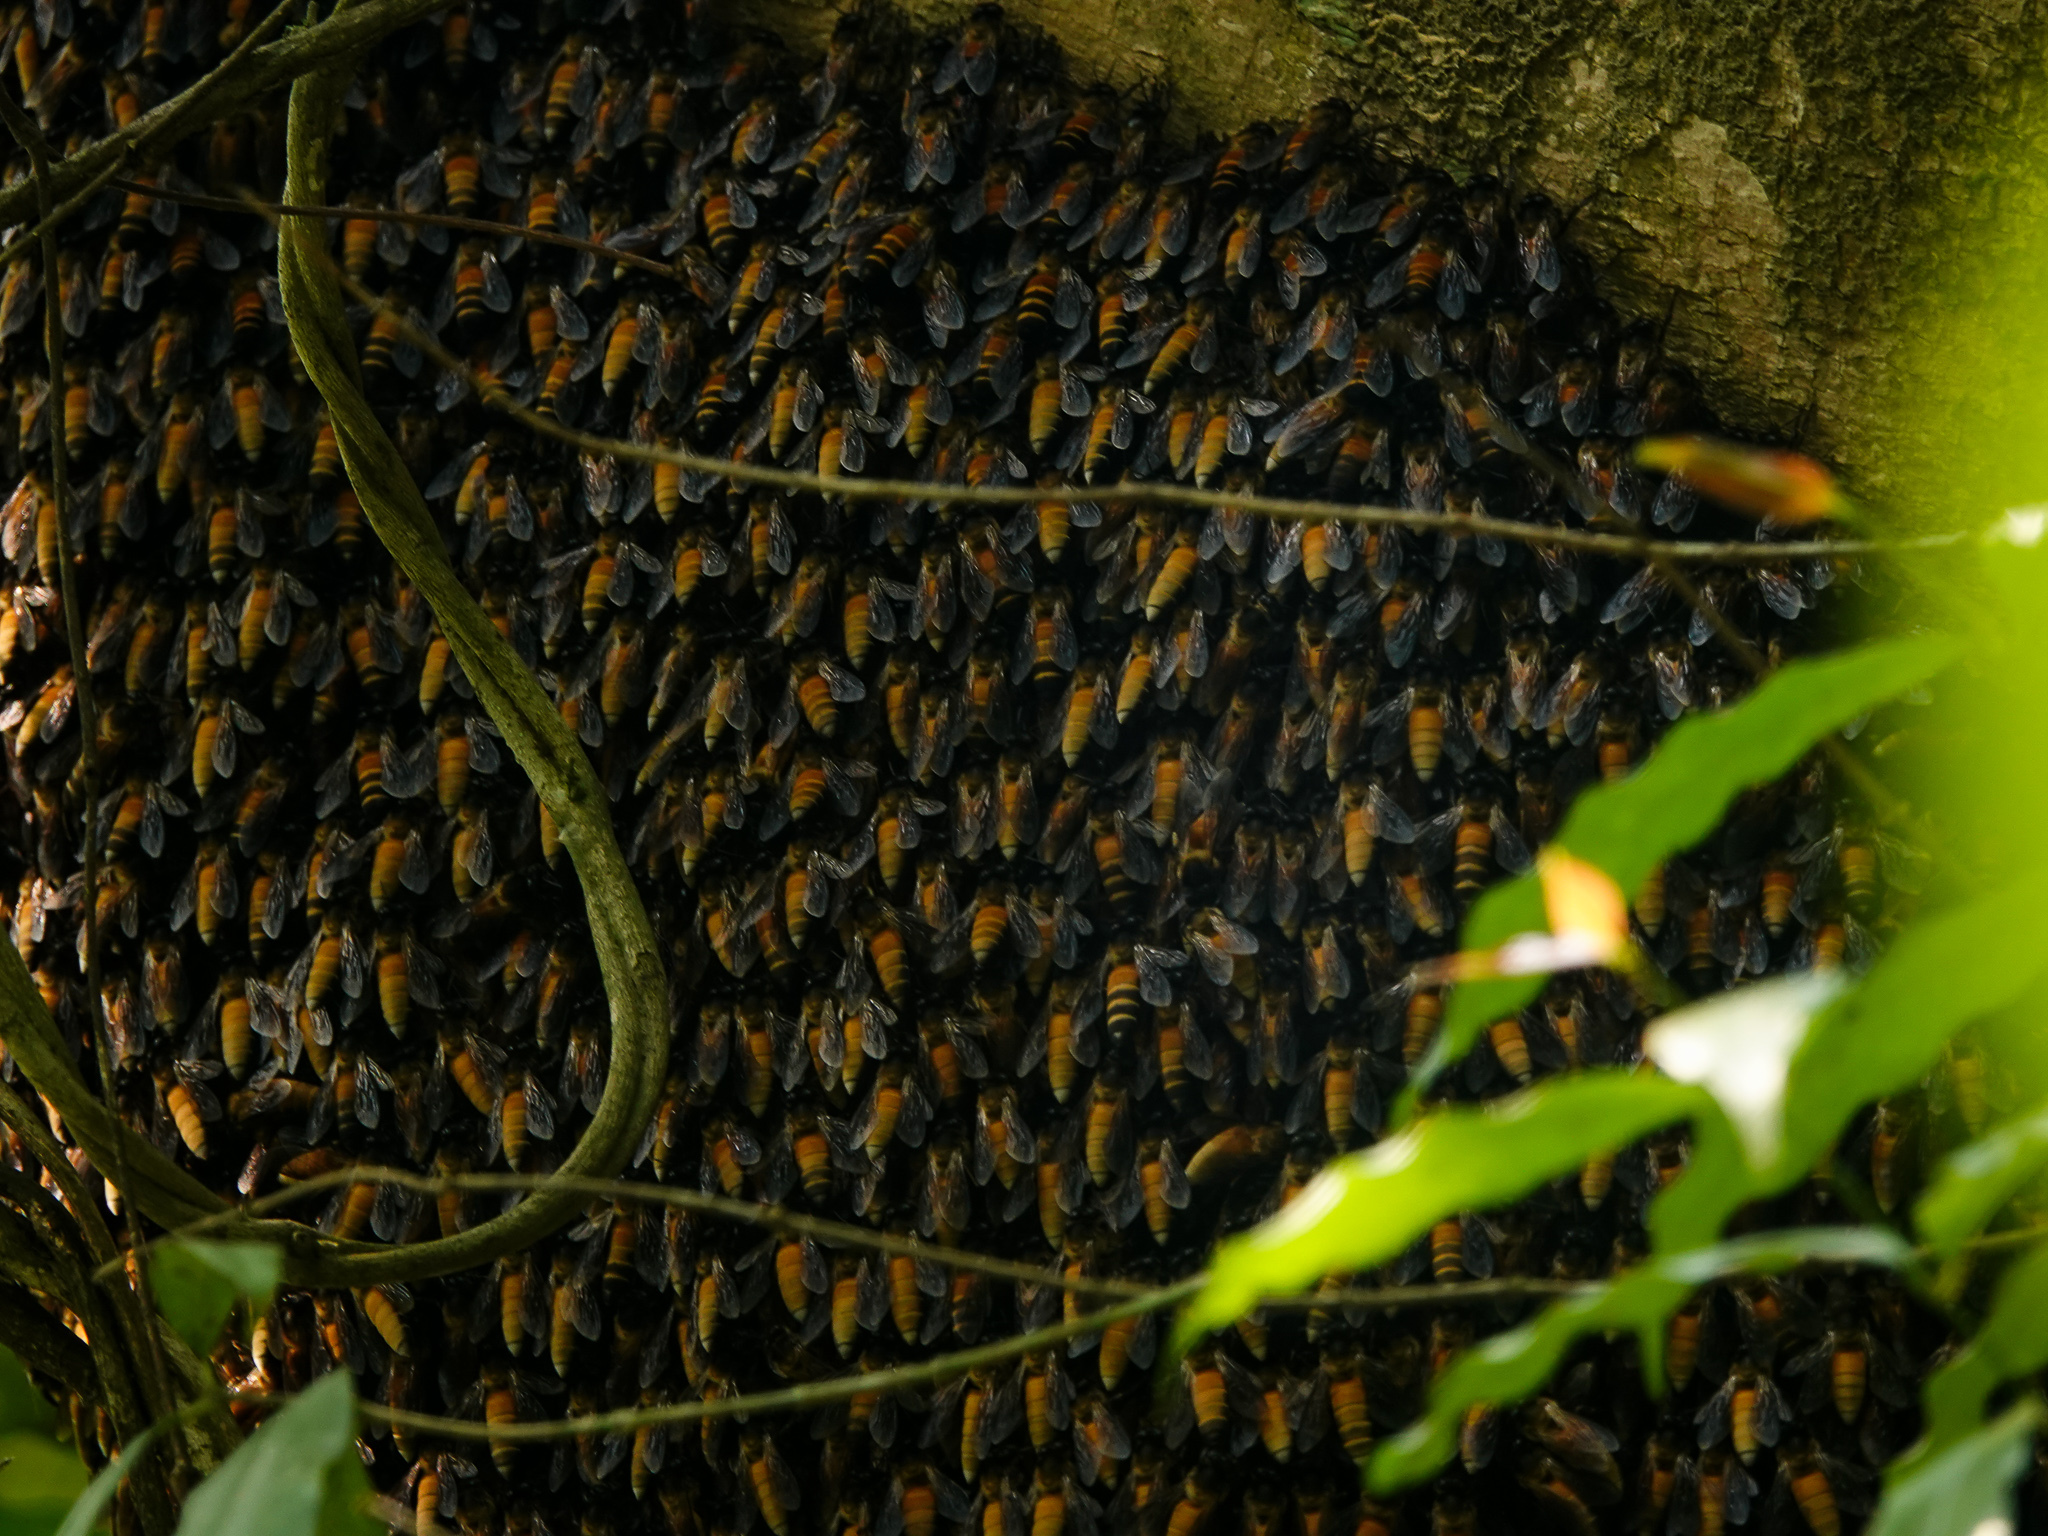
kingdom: Animalia
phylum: Arthropoda
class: Insecta
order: Hymenoptera
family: Apidae
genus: Apis
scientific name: Apis dorsata
